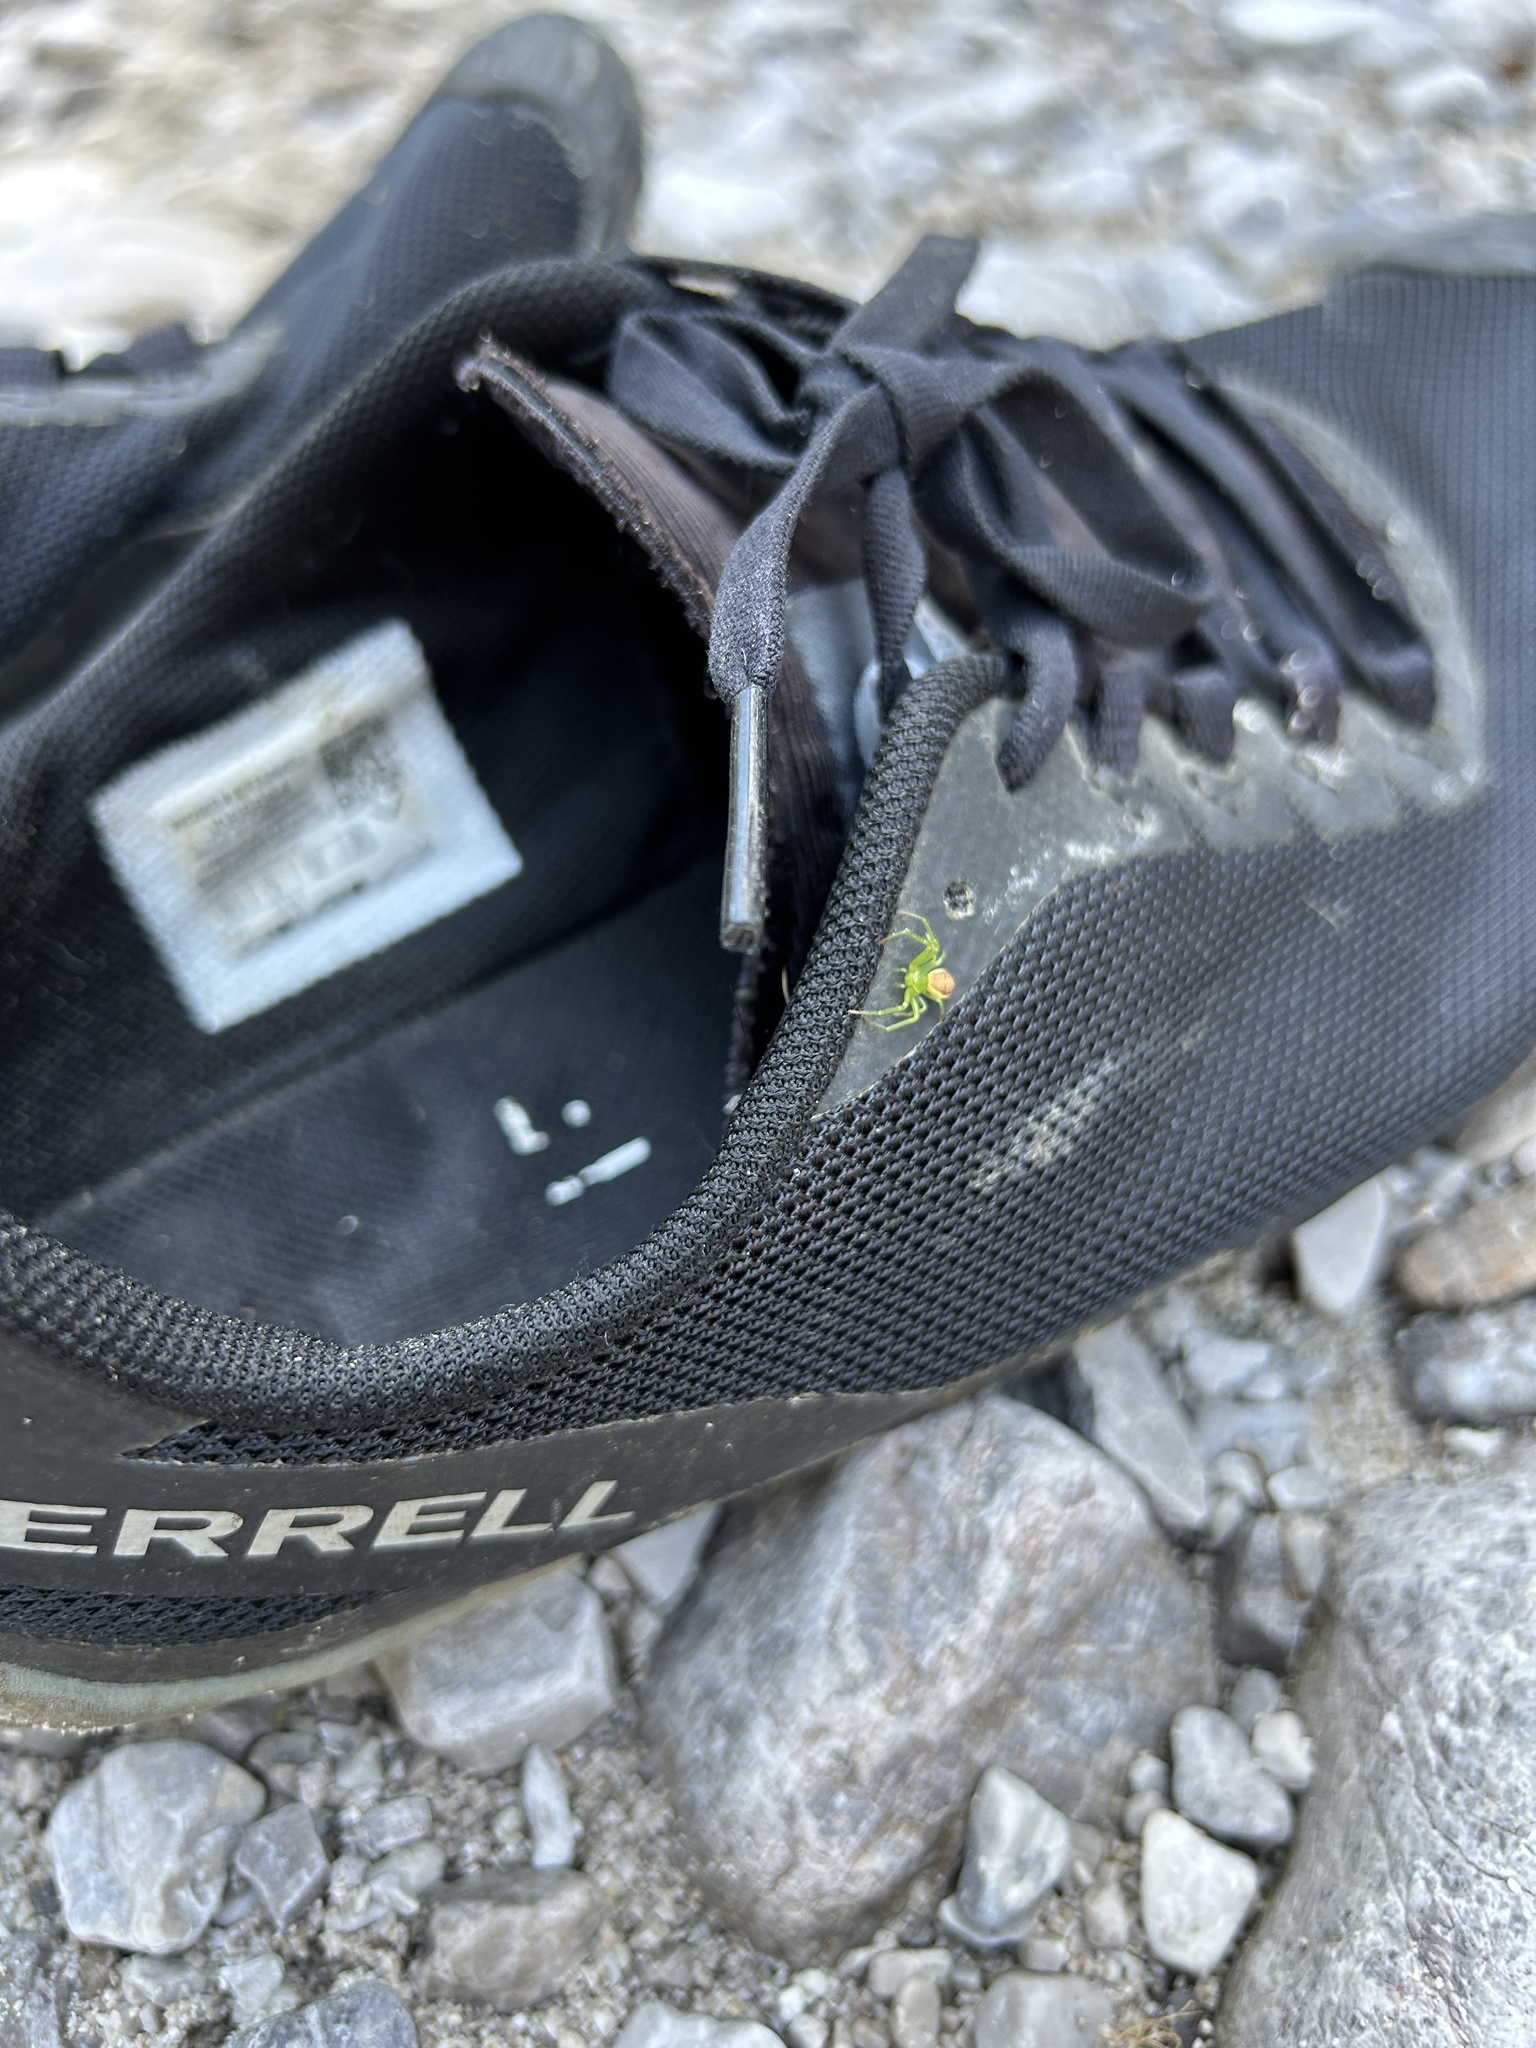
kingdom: Animalia
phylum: Arthropoda
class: Arachnida
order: Araneae
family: Thomisidae
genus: Diaea
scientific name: Diaea dorsata
